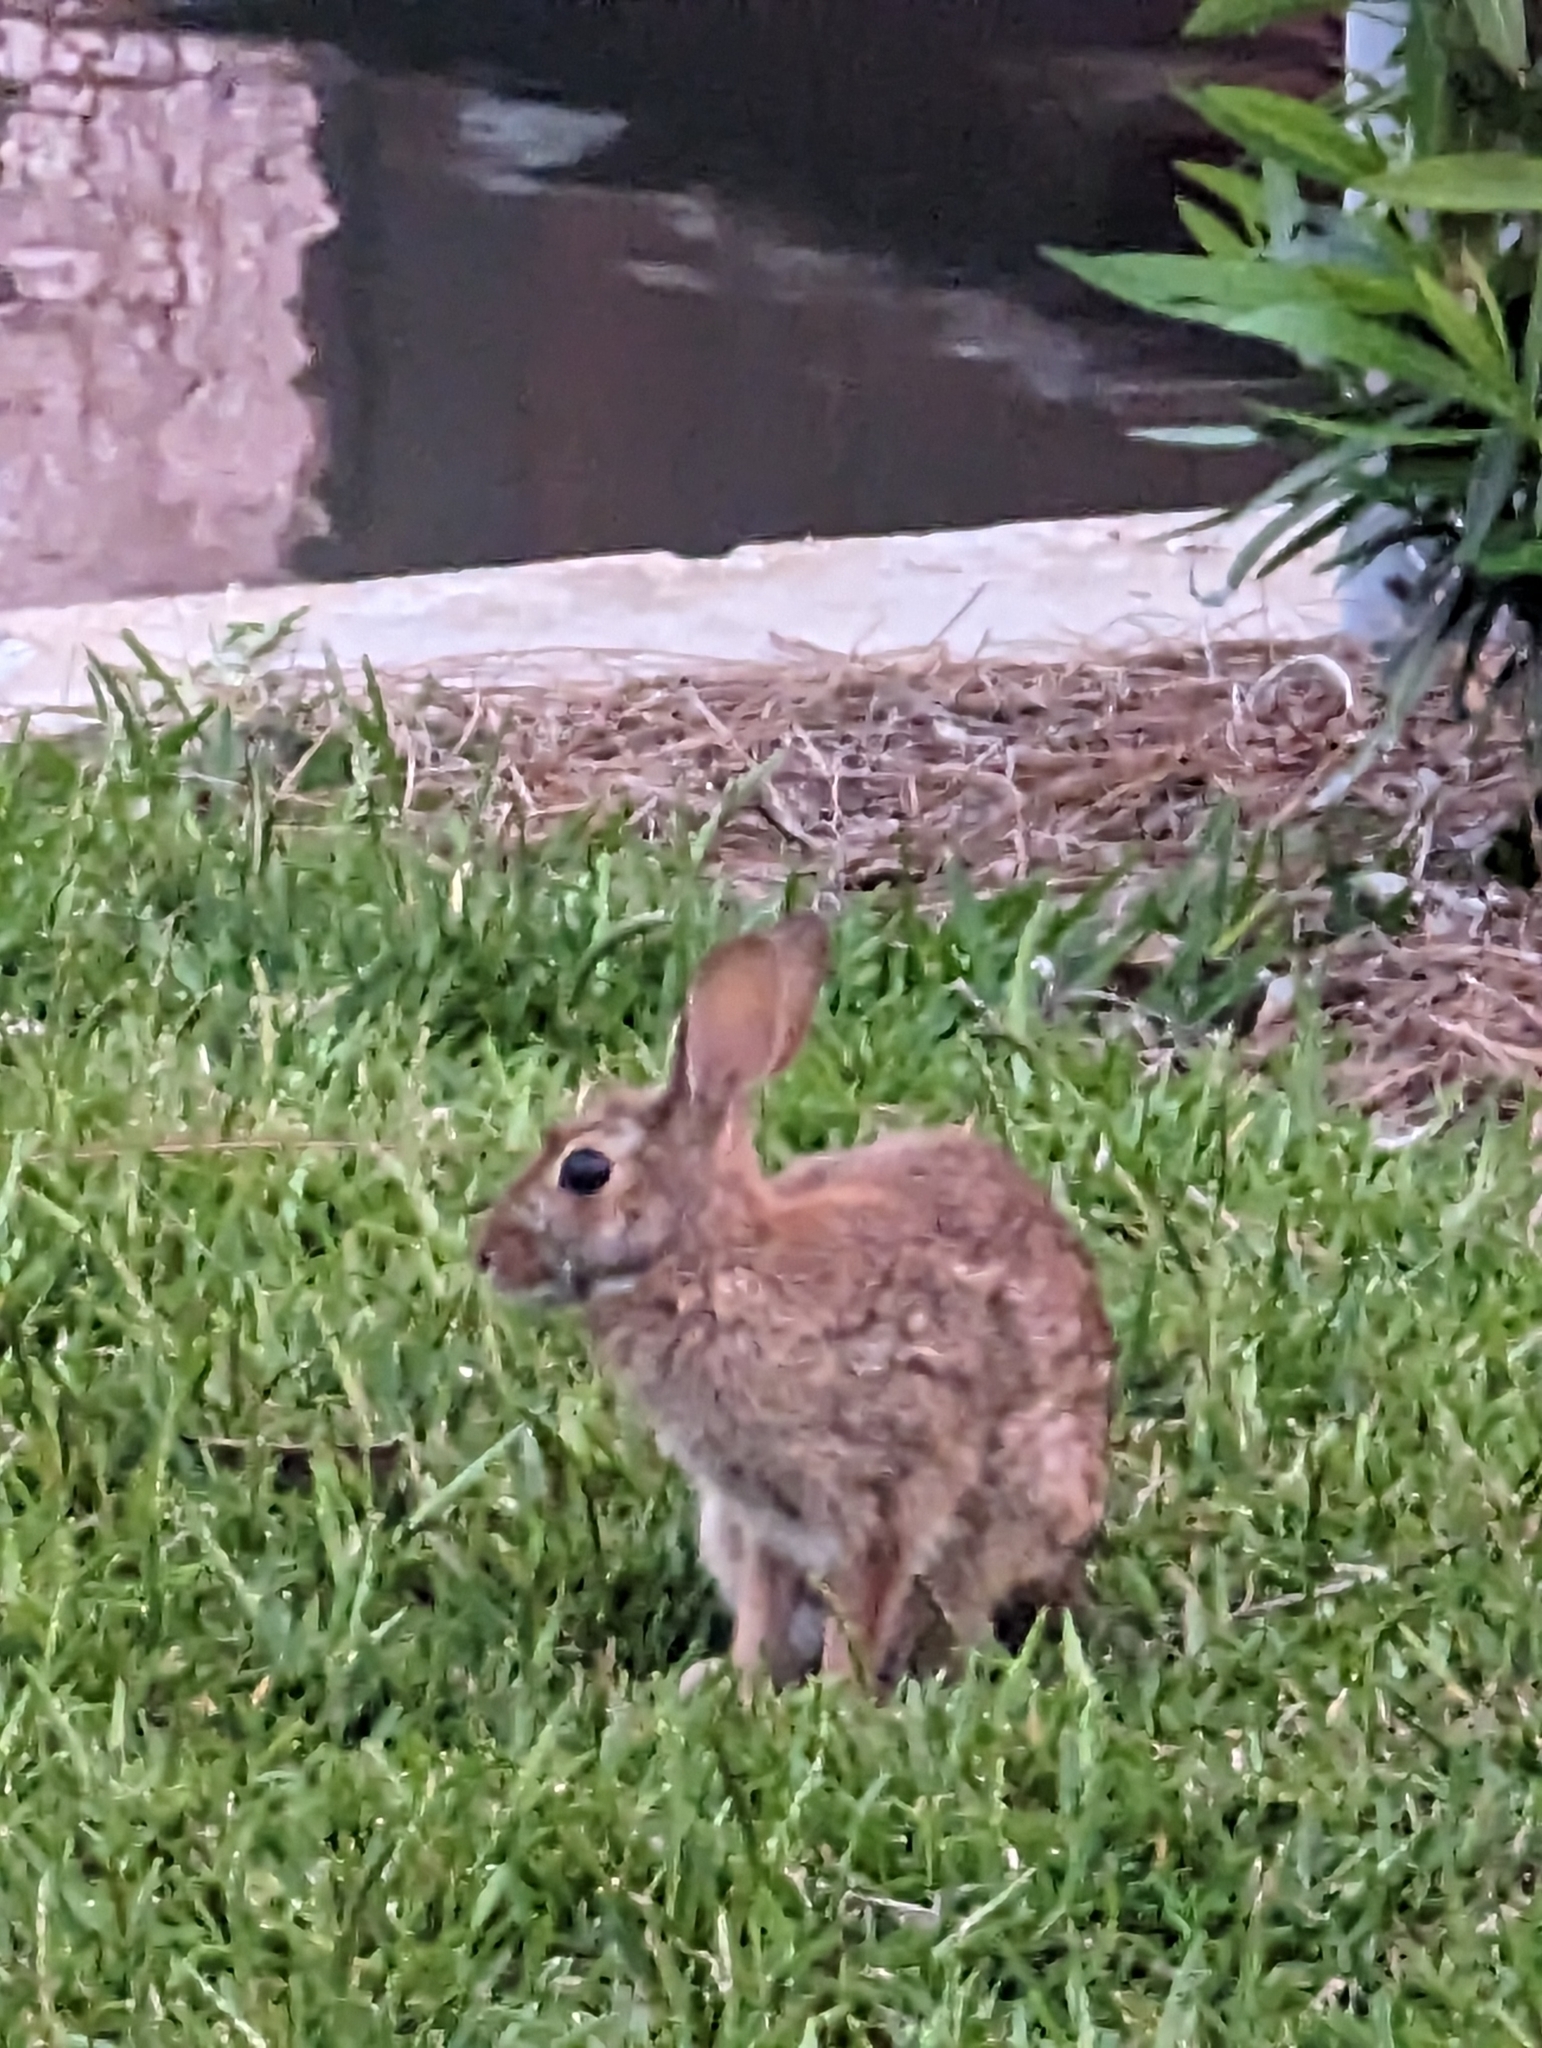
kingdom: Animalia
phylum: Chordata
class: Mammalia
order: Lagomorpha
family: Leporidae
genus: Sylvilagus
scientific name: Sylvilagus floridanus
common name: Eastern cottontail
